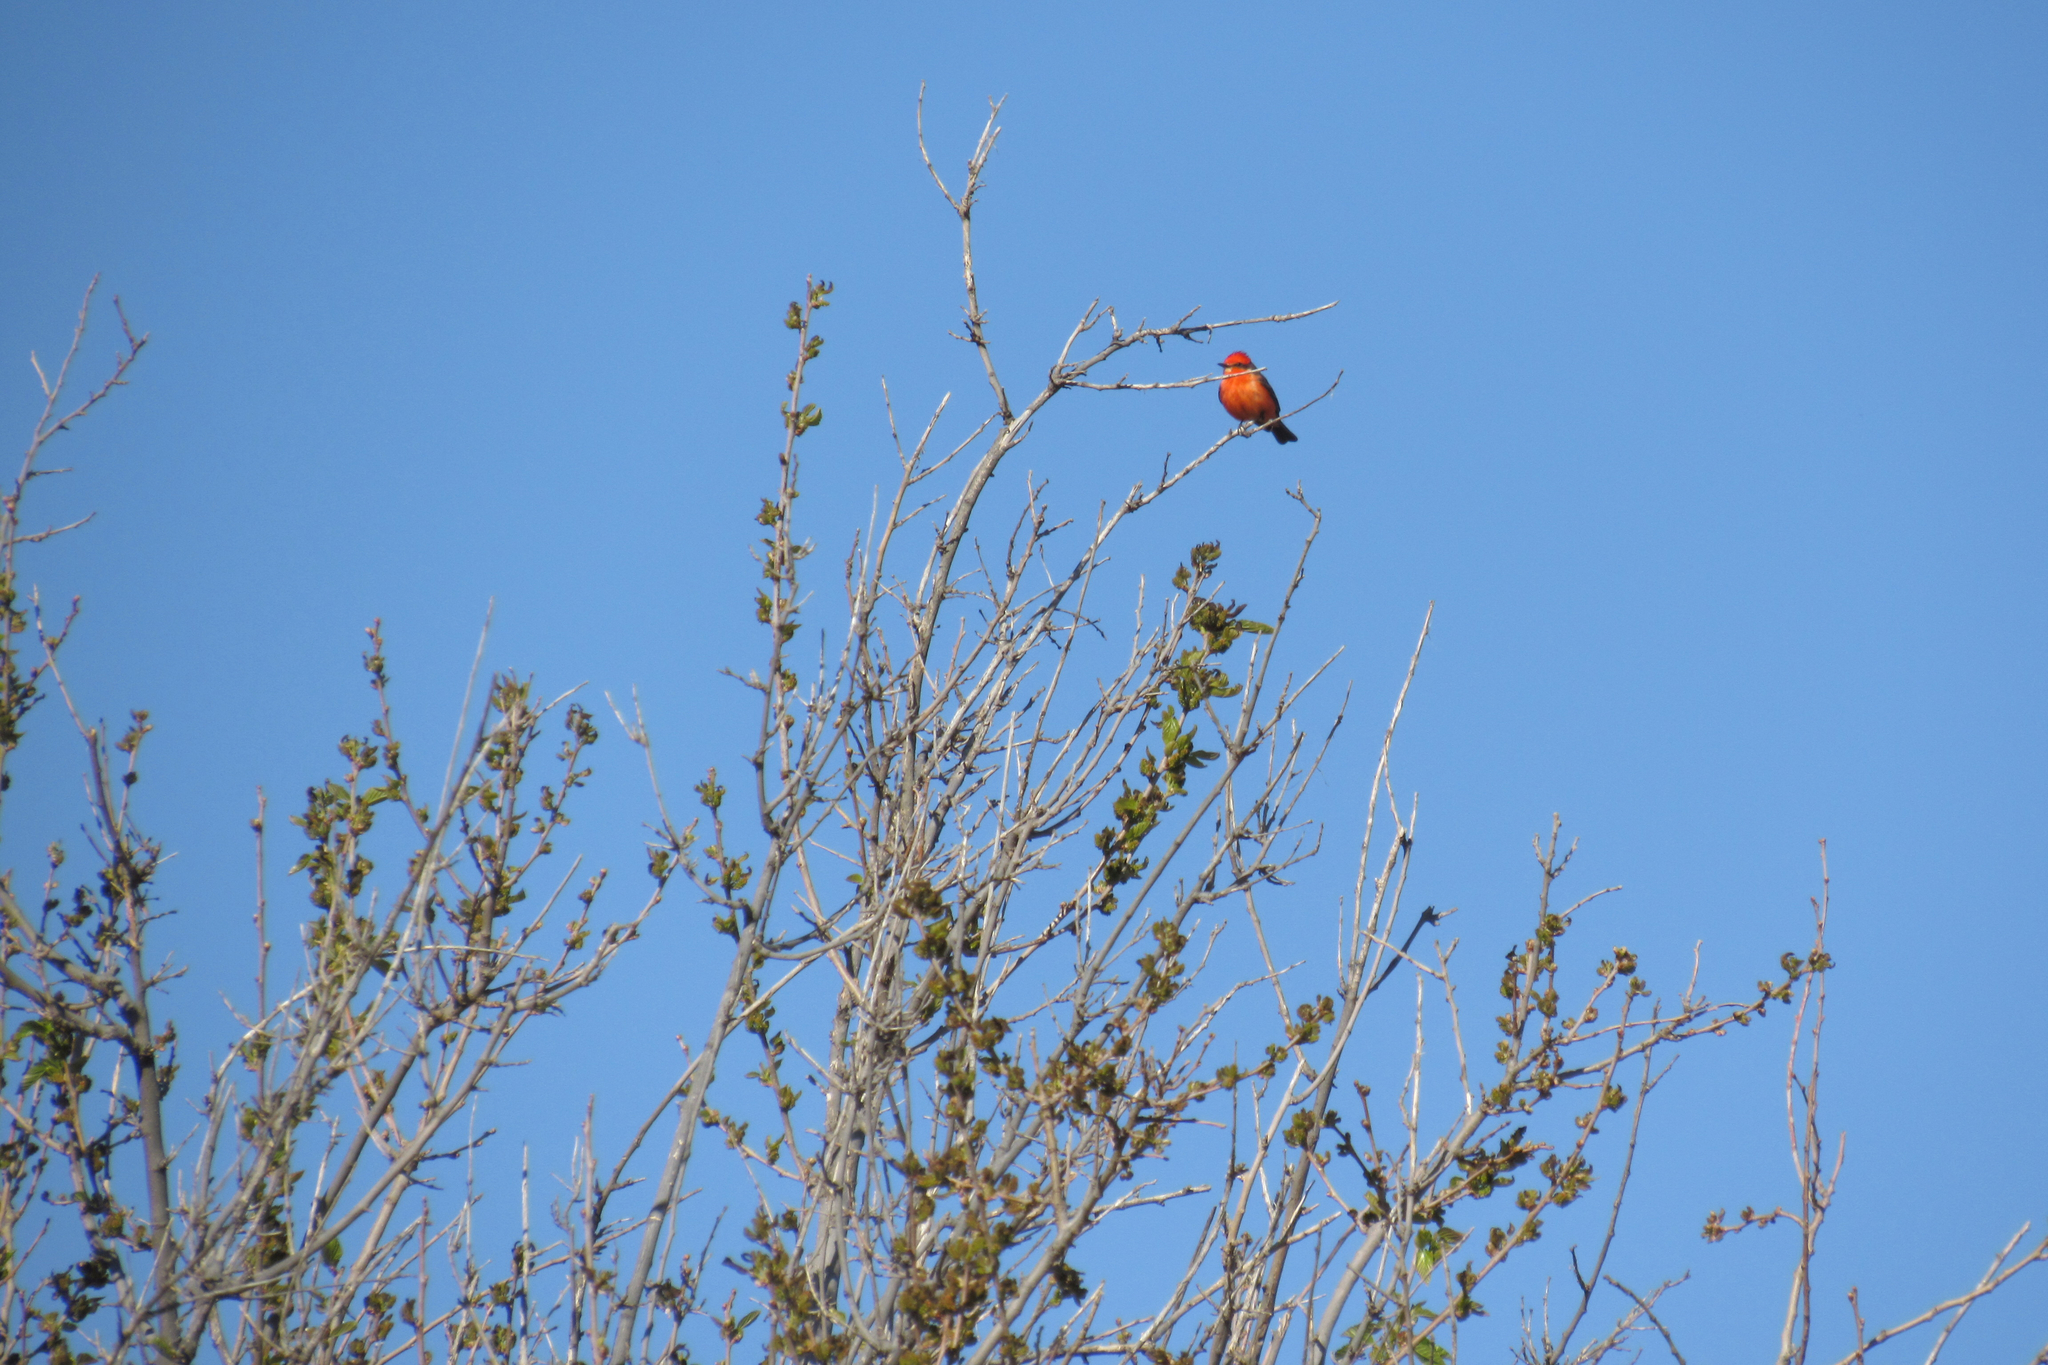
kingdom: Animalia
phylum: Chordata
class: Aves
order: Passeriformes
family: Tyrannidae
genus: Pyrocephalus
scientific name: Pyrocephalus rubinus
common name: Vermilion flycatcher
